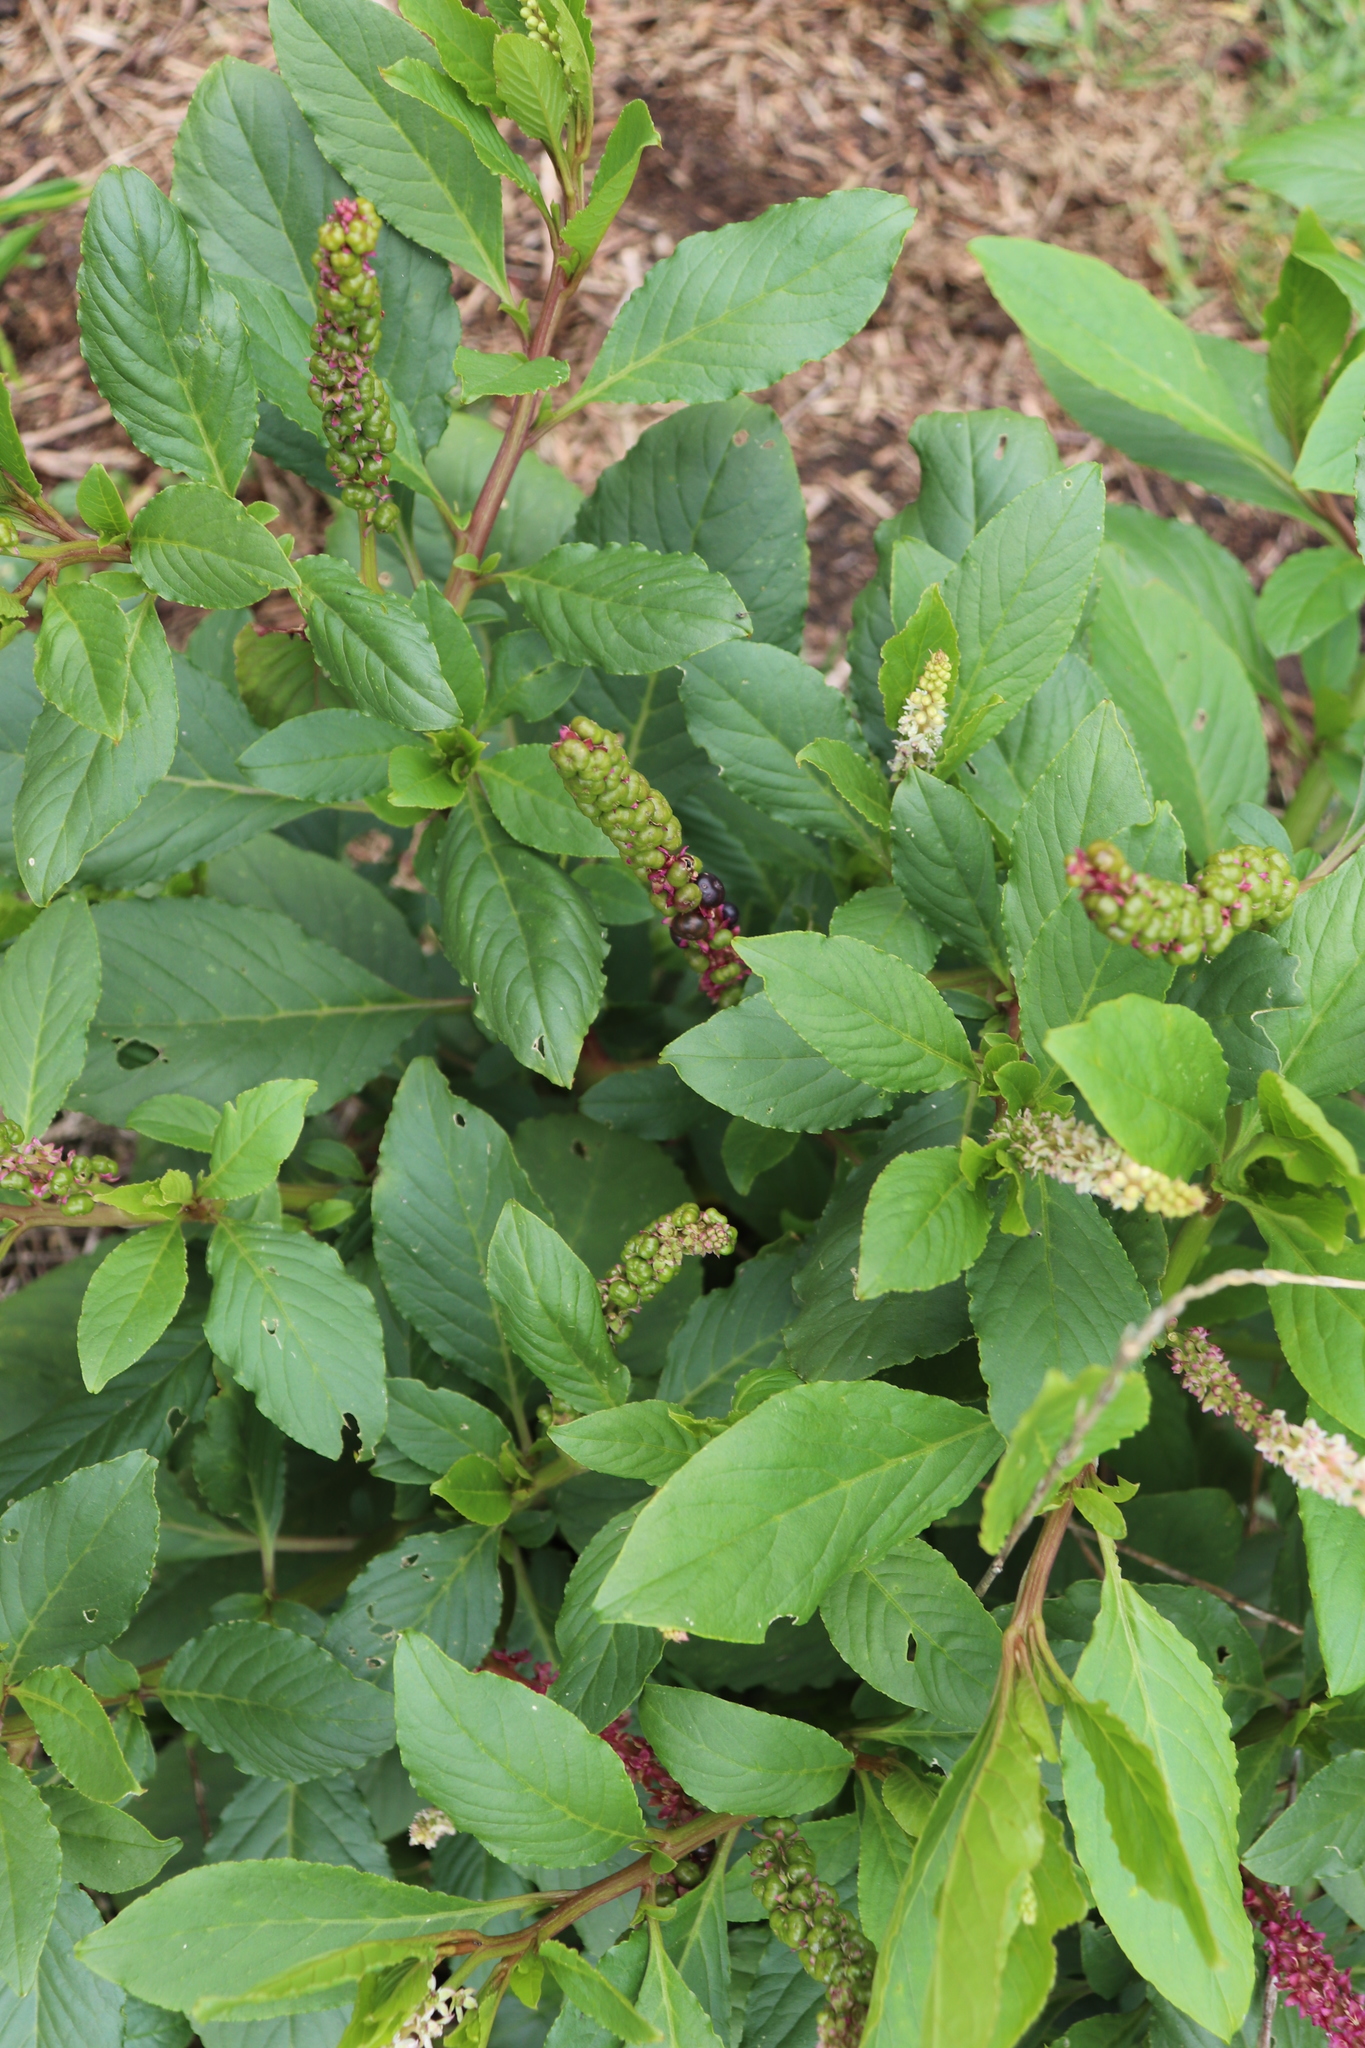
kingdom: Plantae
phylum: Tracheophyta
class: Magnoliopsida
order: Caryophyllales
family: Phytolaccaceae
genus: Phytolacca
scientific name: Phytolacca icosandra
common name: Button pokeweed
